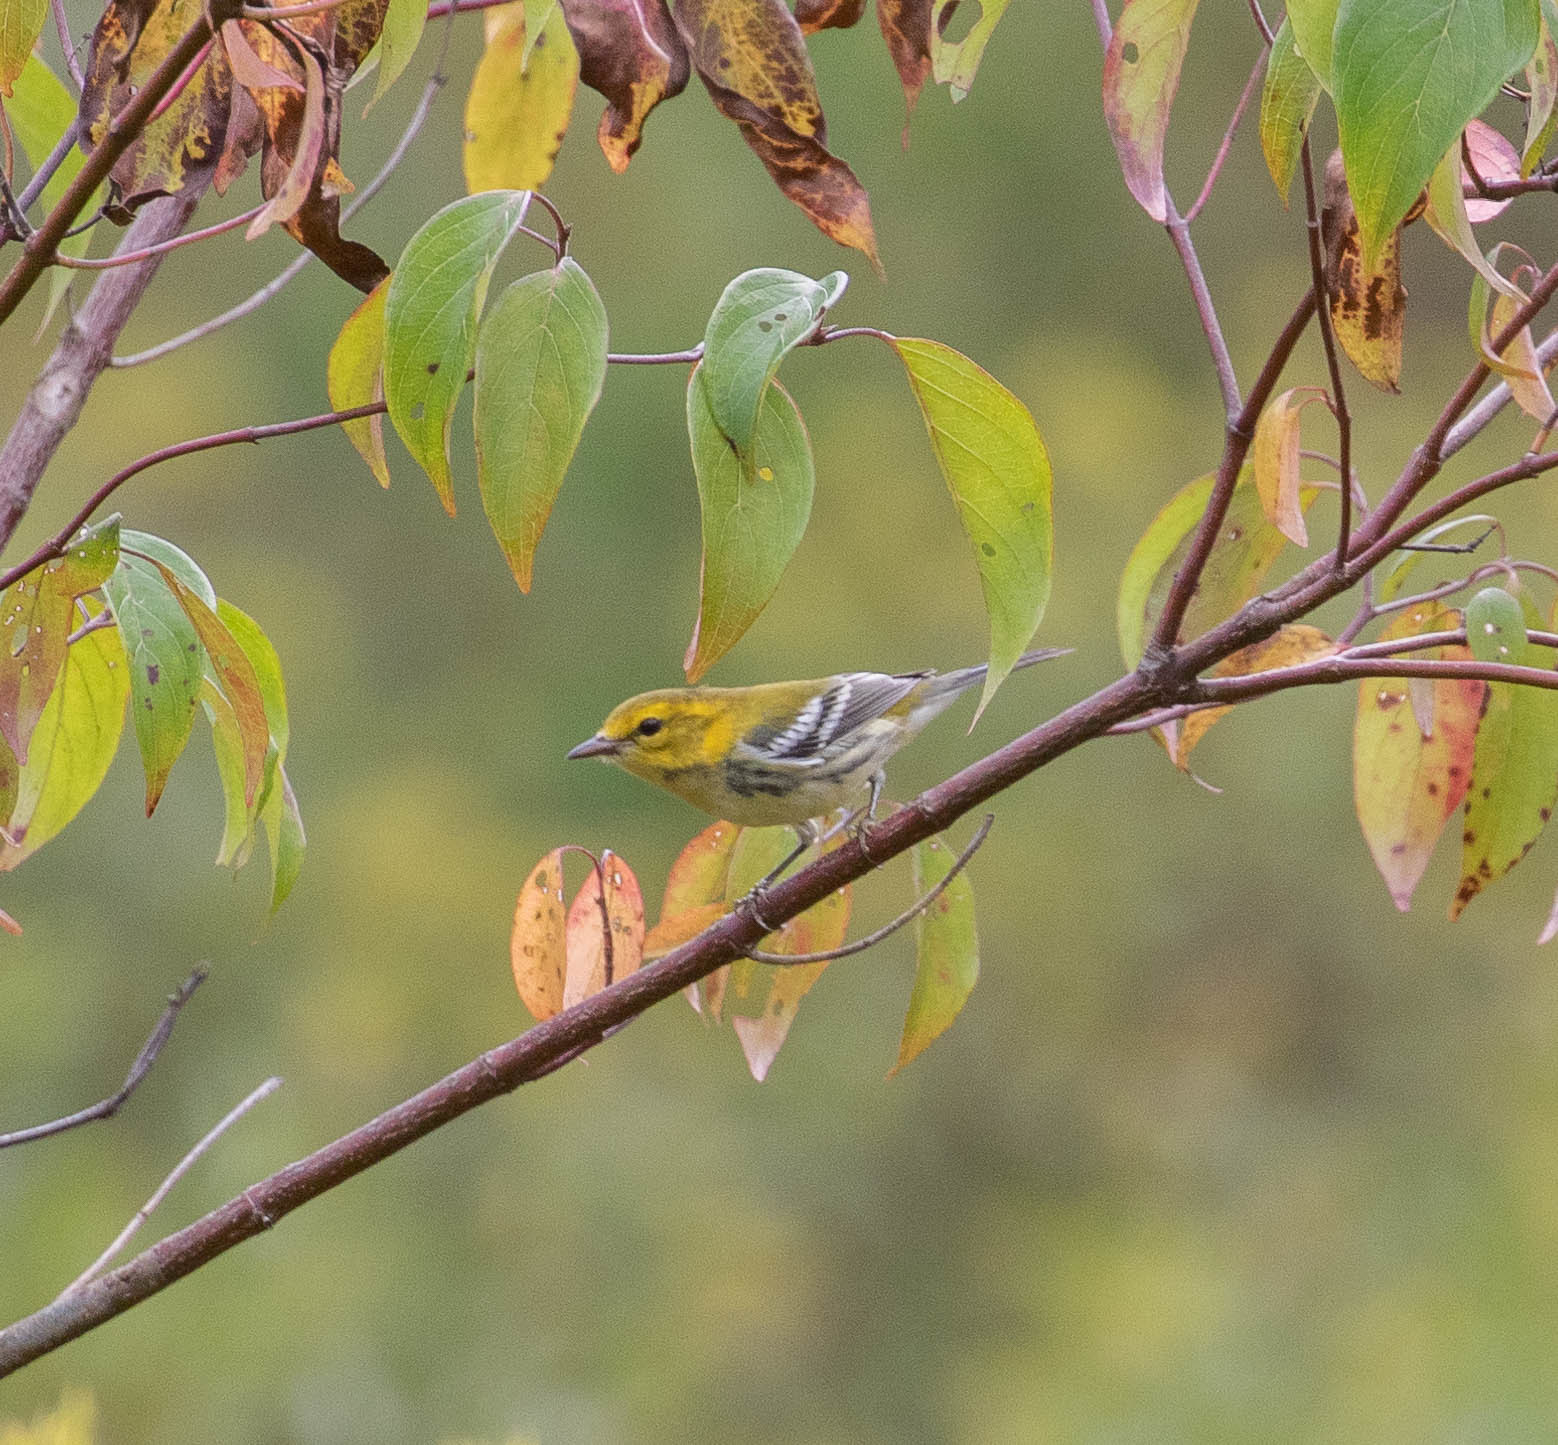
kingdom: Animalia
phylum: Chordata
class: Aves
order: Passeriformes
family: Parulidae
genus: Setophaga
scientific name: Setophaga virens
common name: Black-throated green warbler
